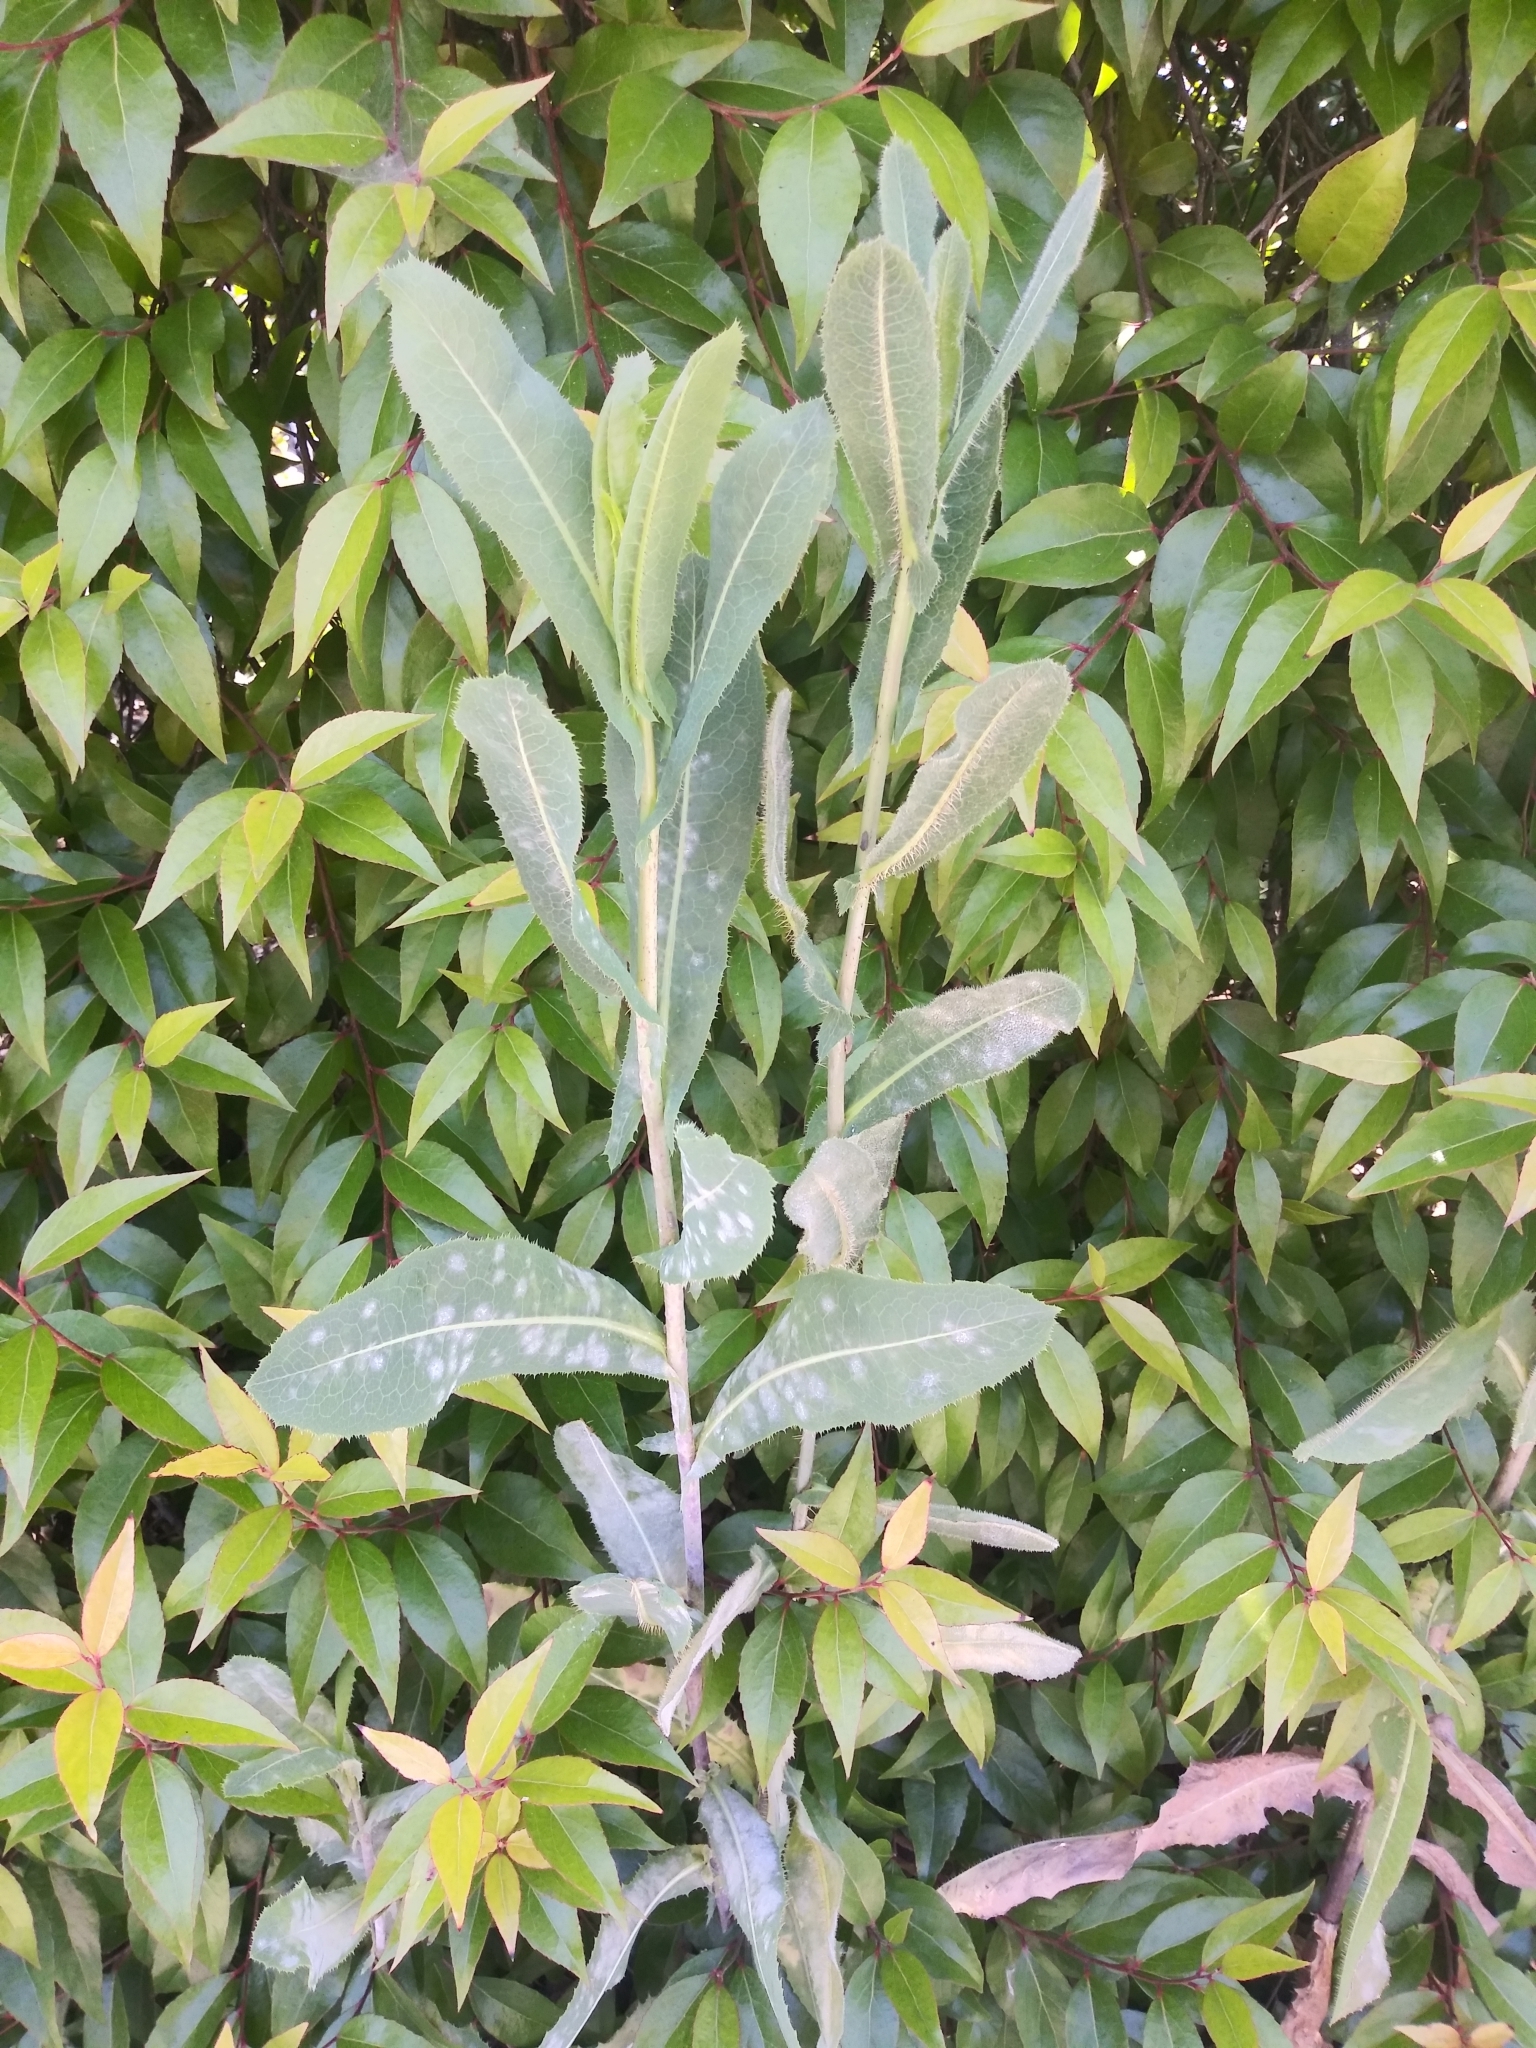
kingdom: Plantae
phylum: Tracheophyta
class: Magnoliopsida
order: Asterales
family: Asteraceae
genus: Lactuca
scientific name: Lactuca serriola
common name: Prickly lettuce
